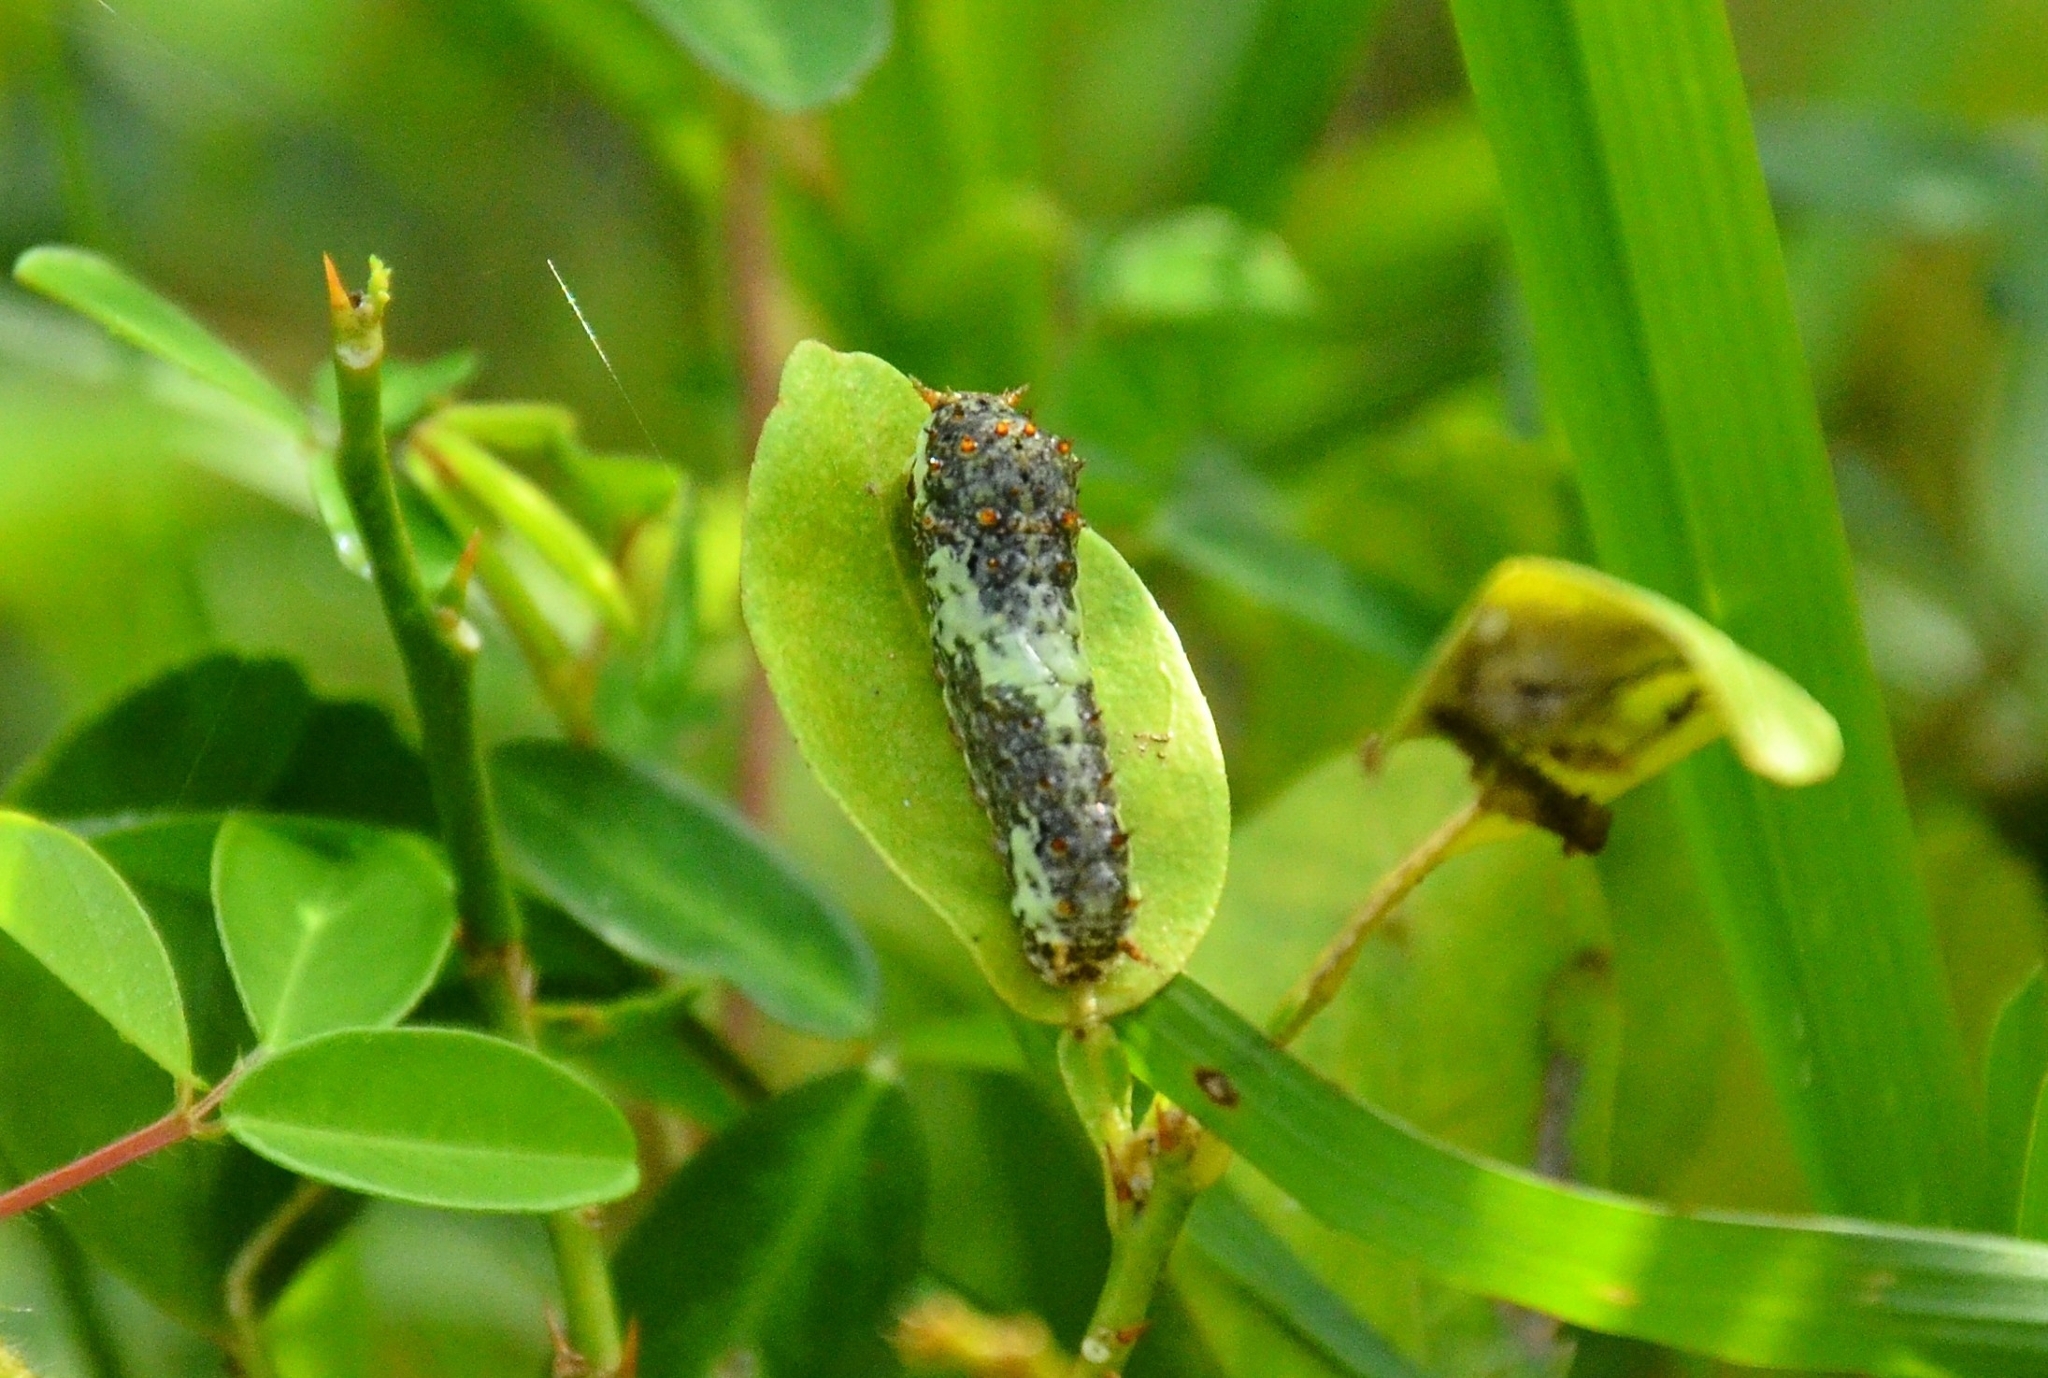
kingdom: Animalia
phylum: Arthropoda
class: Insecta
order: Lepidoptera
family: Papilionidae
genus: Papilio
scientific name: Papilio demoleus
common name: Lime butterfly
